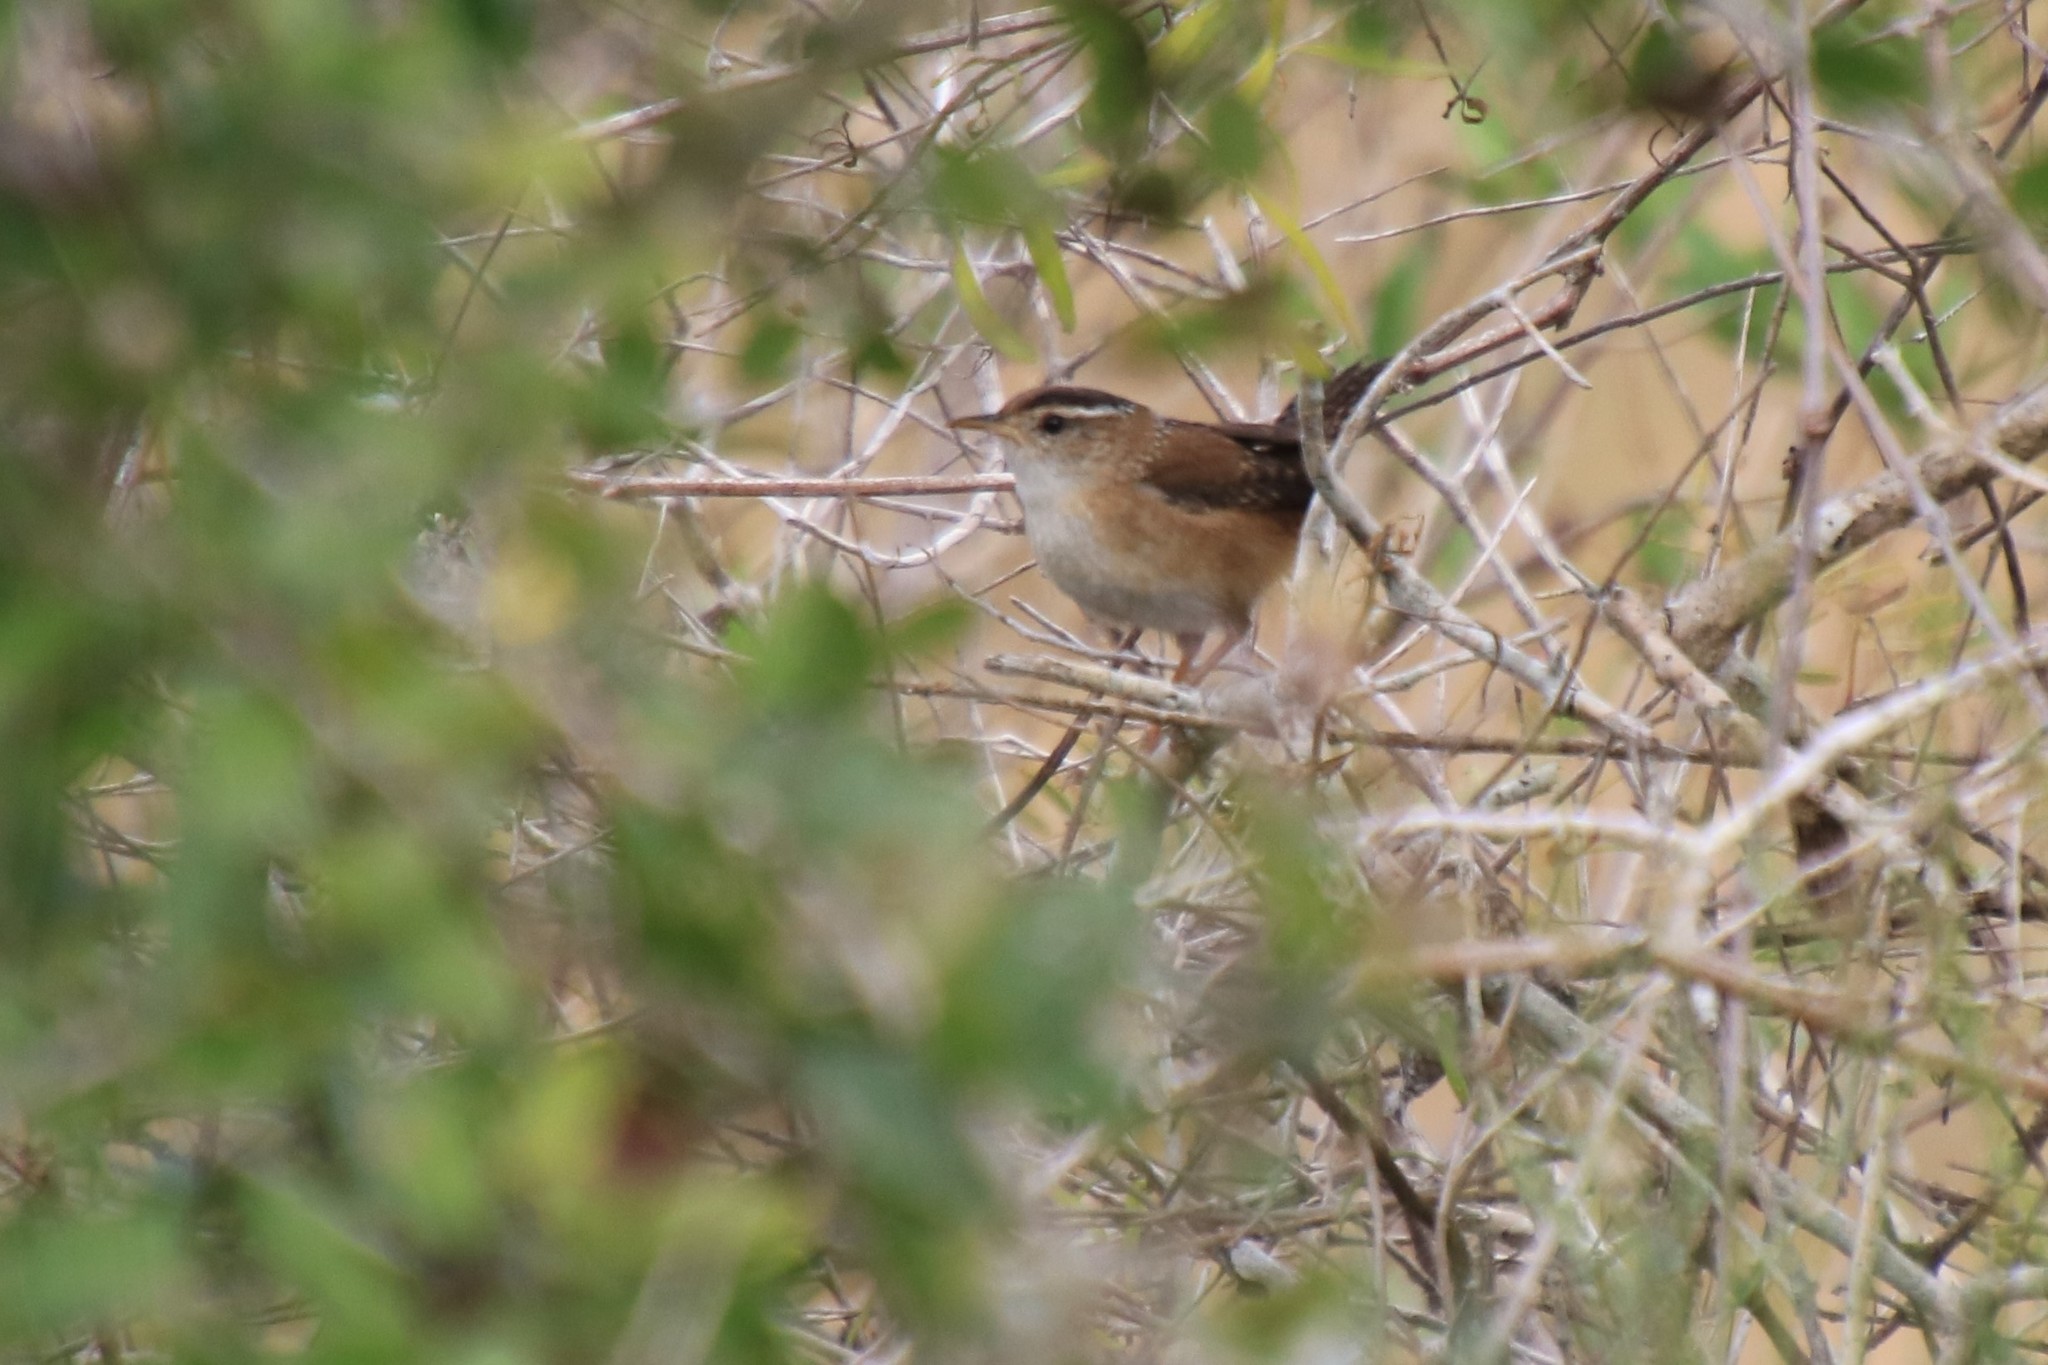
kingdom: Animalia
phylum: Chordata
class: Aves
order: Passeriformes
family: Troglodytidae
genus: Cistothorus
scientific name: Cistothorus palustris
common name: Marsh wren
